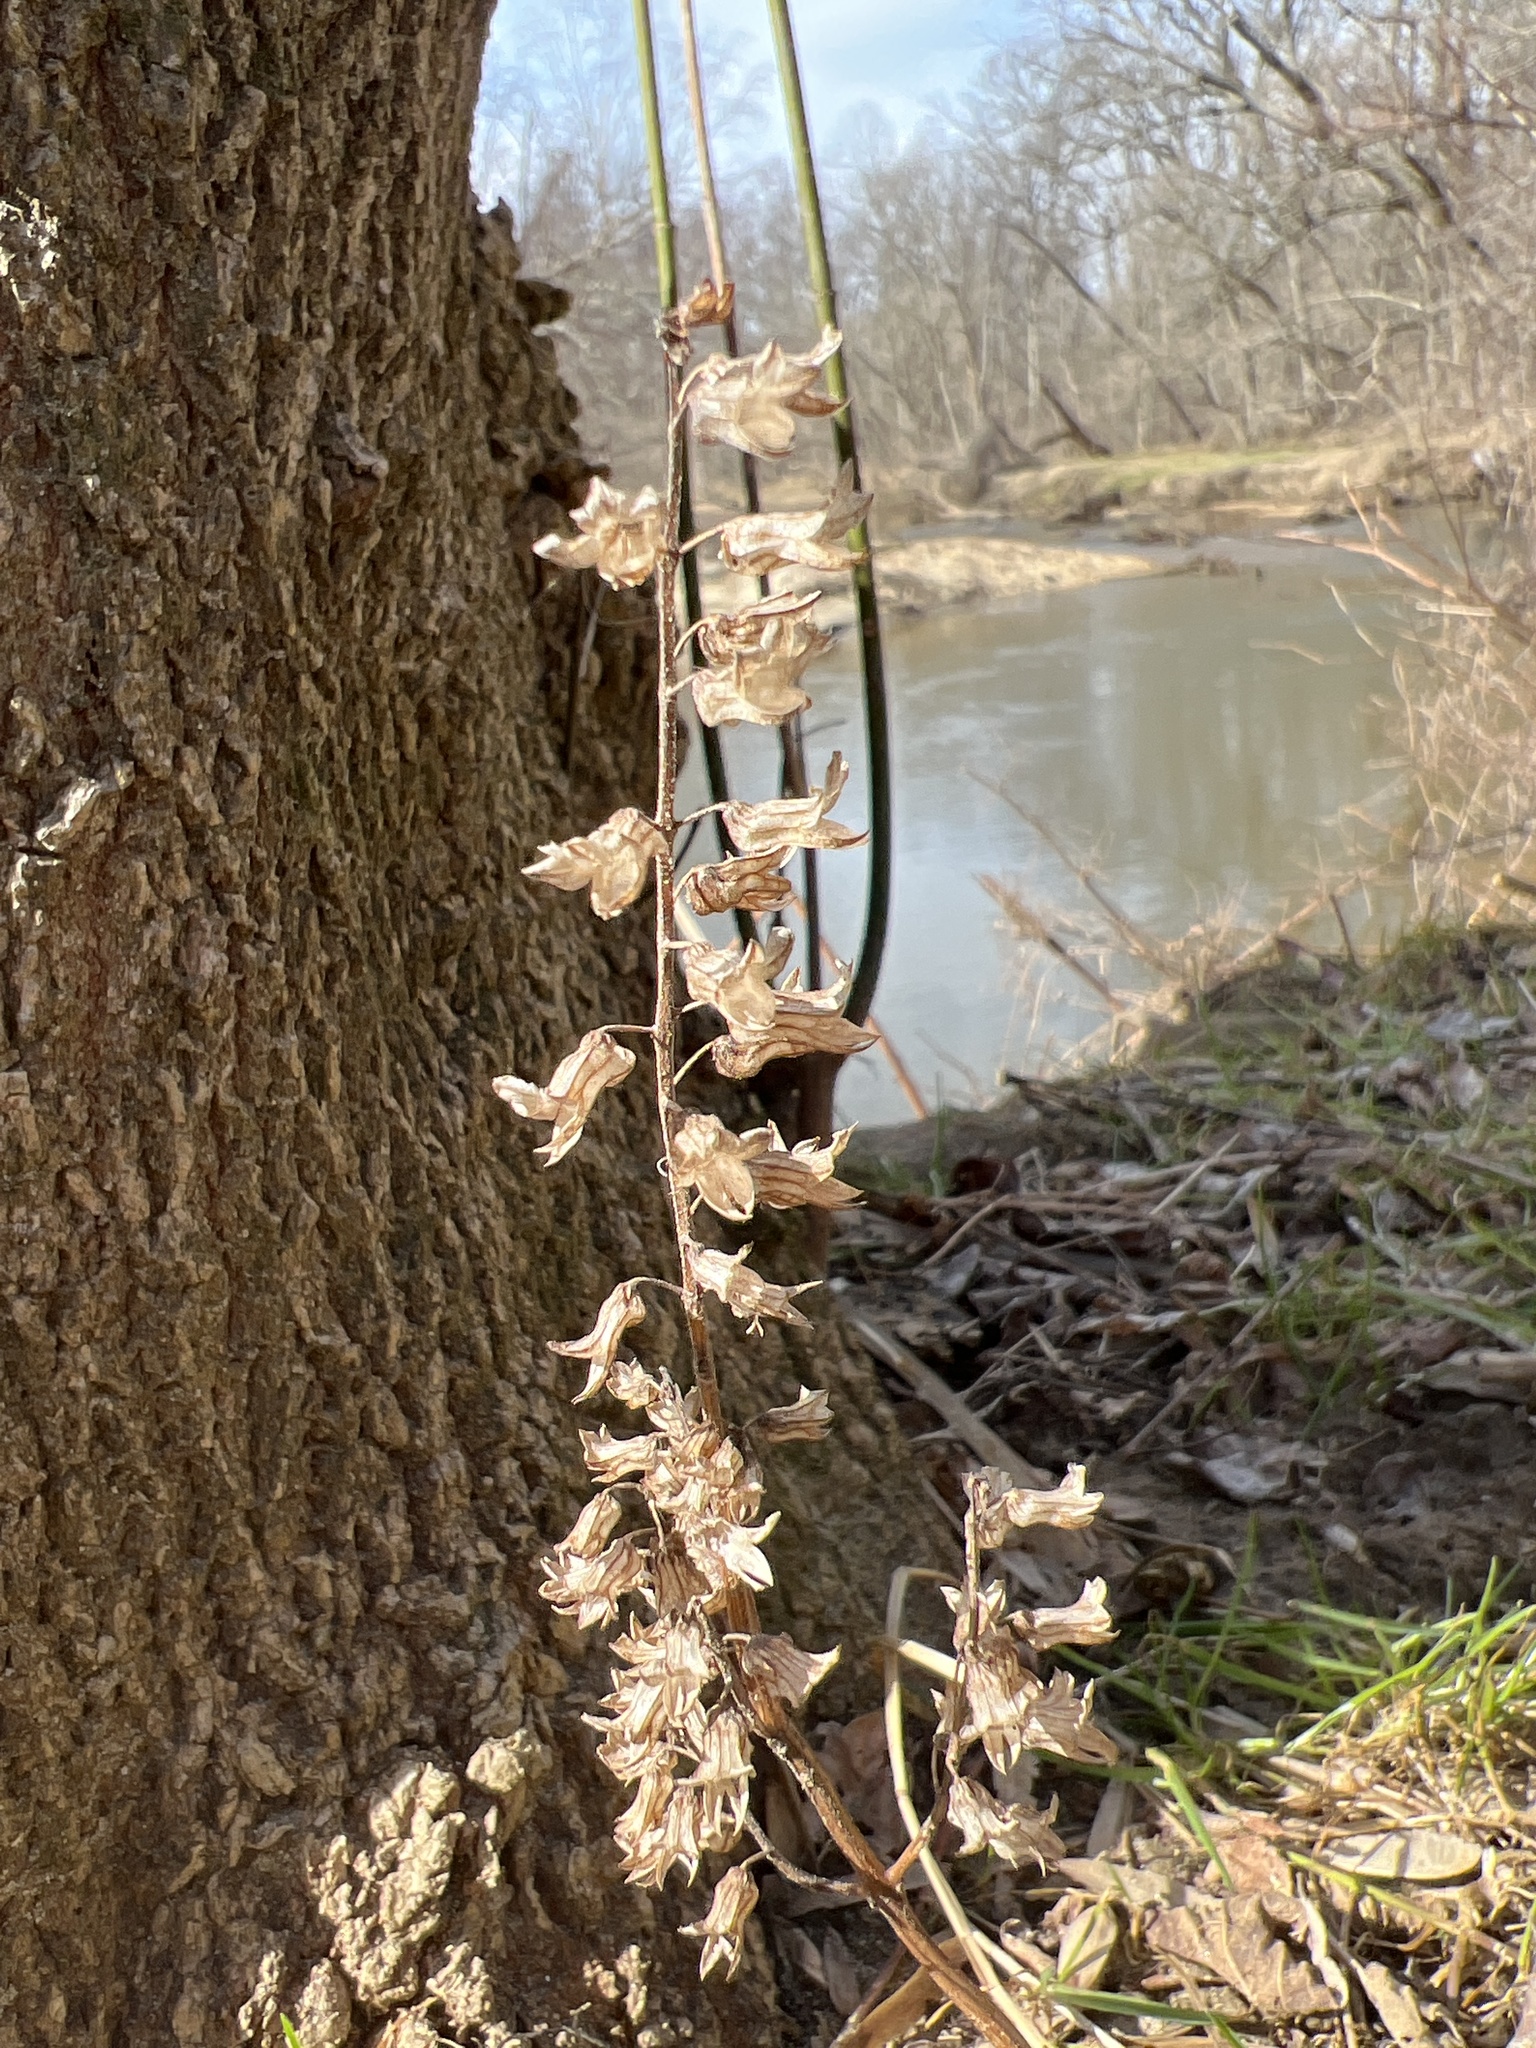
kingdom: Plantae
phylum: Tracheophyta
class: Magnoliopsida
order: Lamiales
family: Lamiaceae
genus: Perilla
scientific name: Perilla frutescens
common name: Perilla
